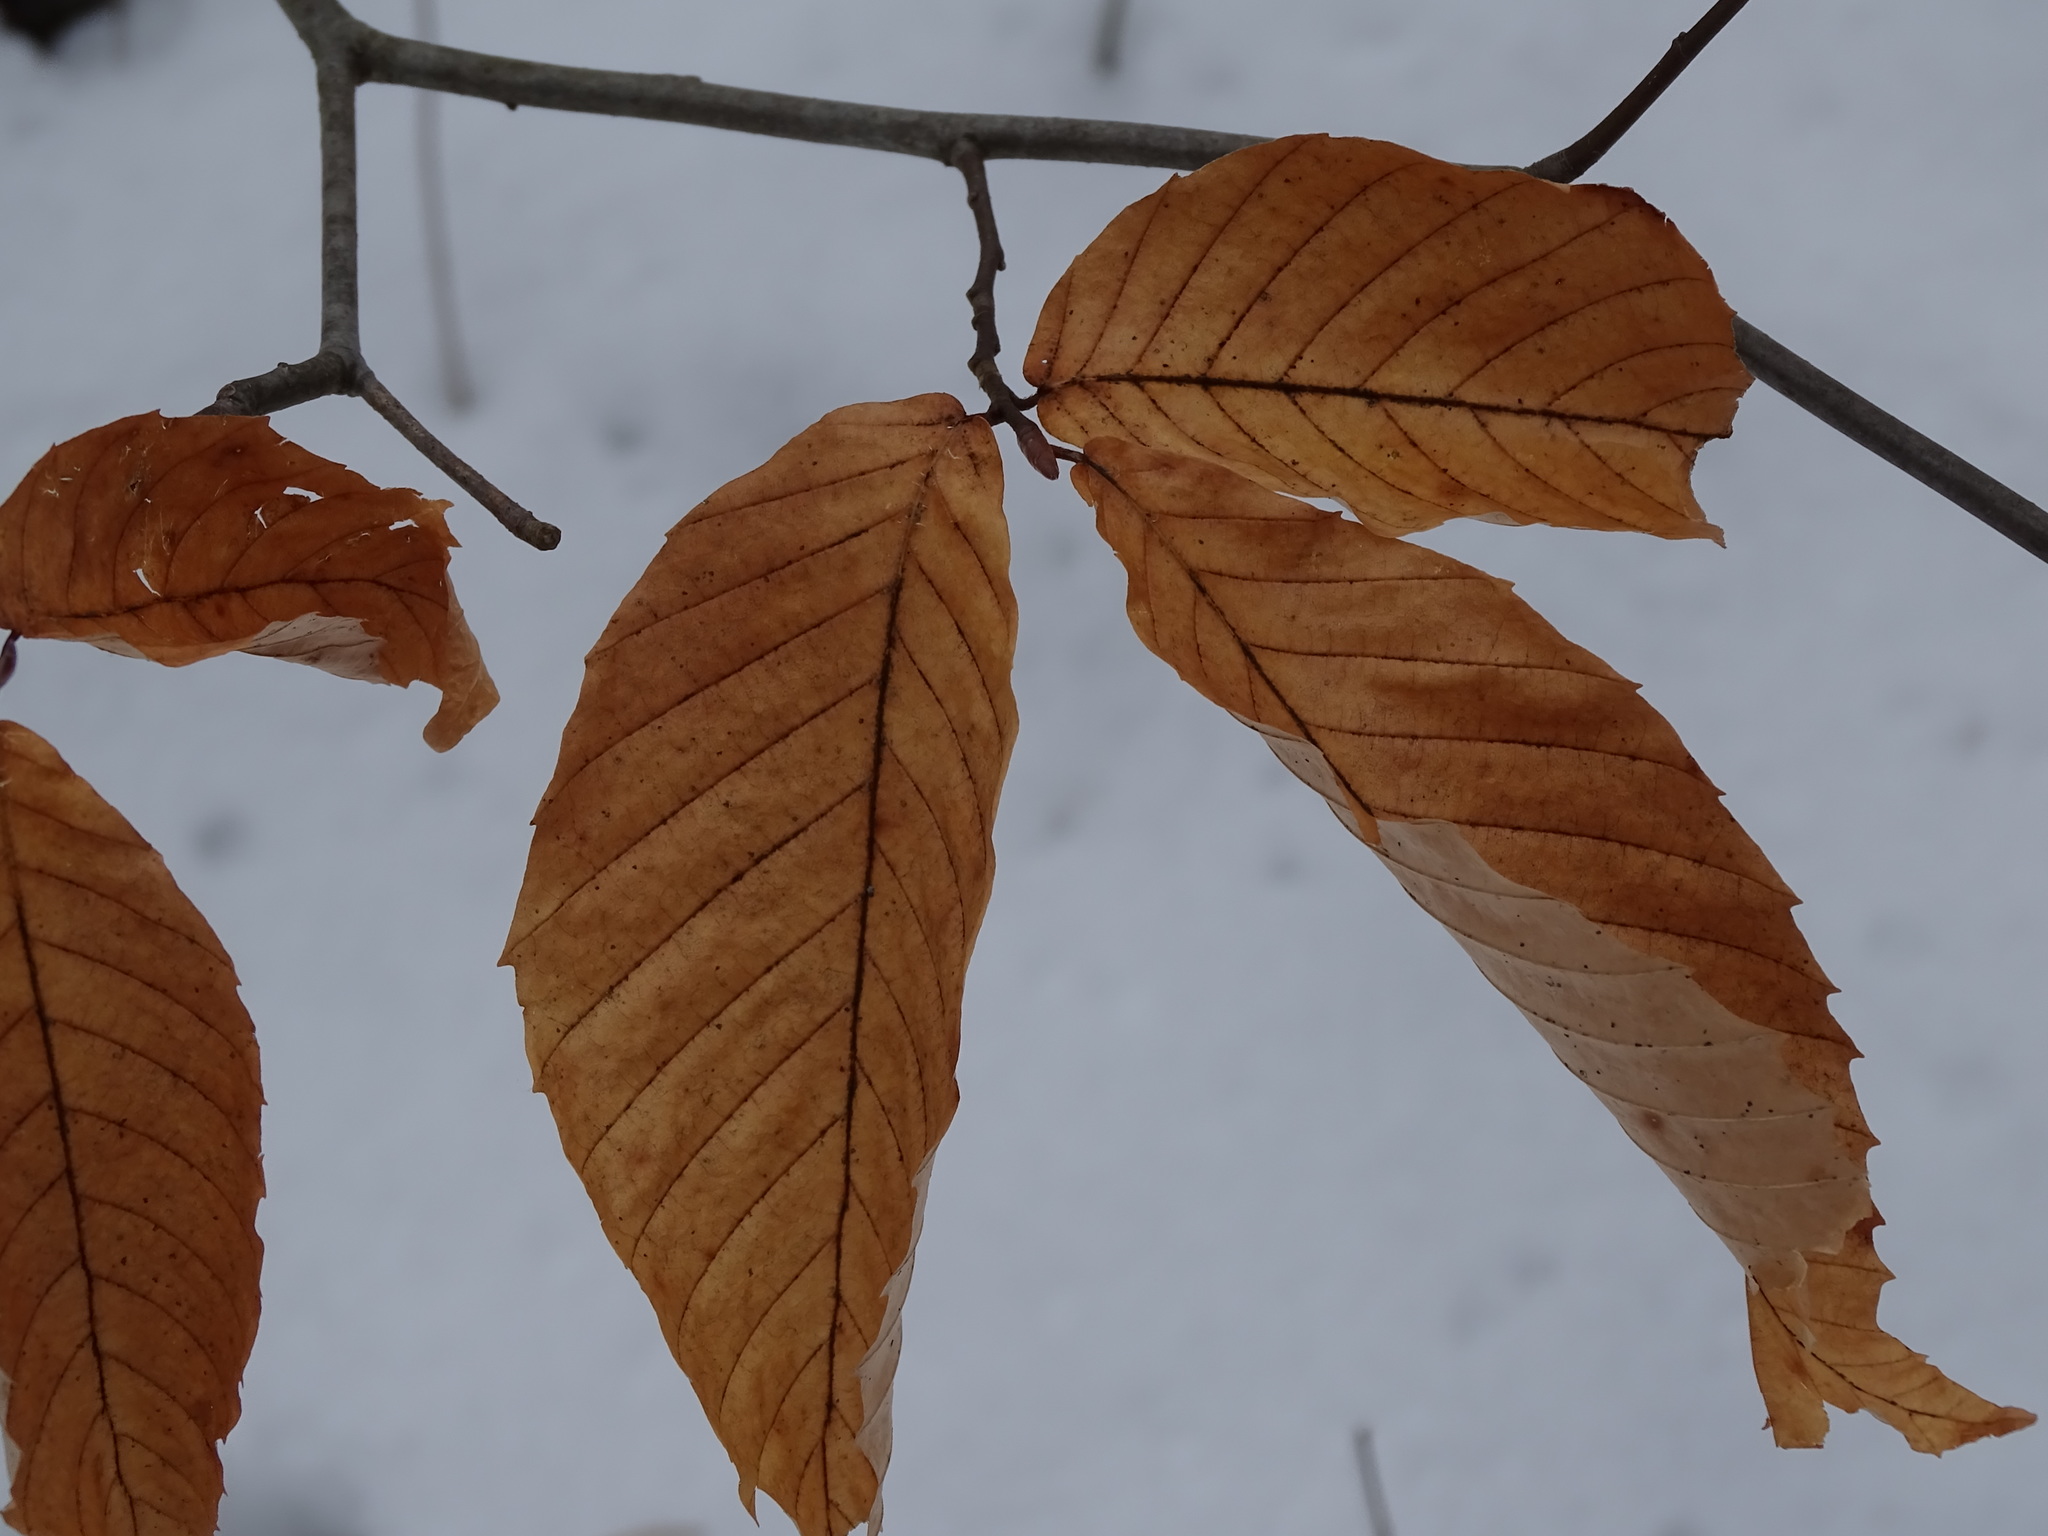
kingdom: Plantae
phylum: Tracheophyta
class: Magnoliopsida
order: Fagales
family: Fagaceae
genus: Fagus
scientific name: Fagus grandifolia
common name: American beech
